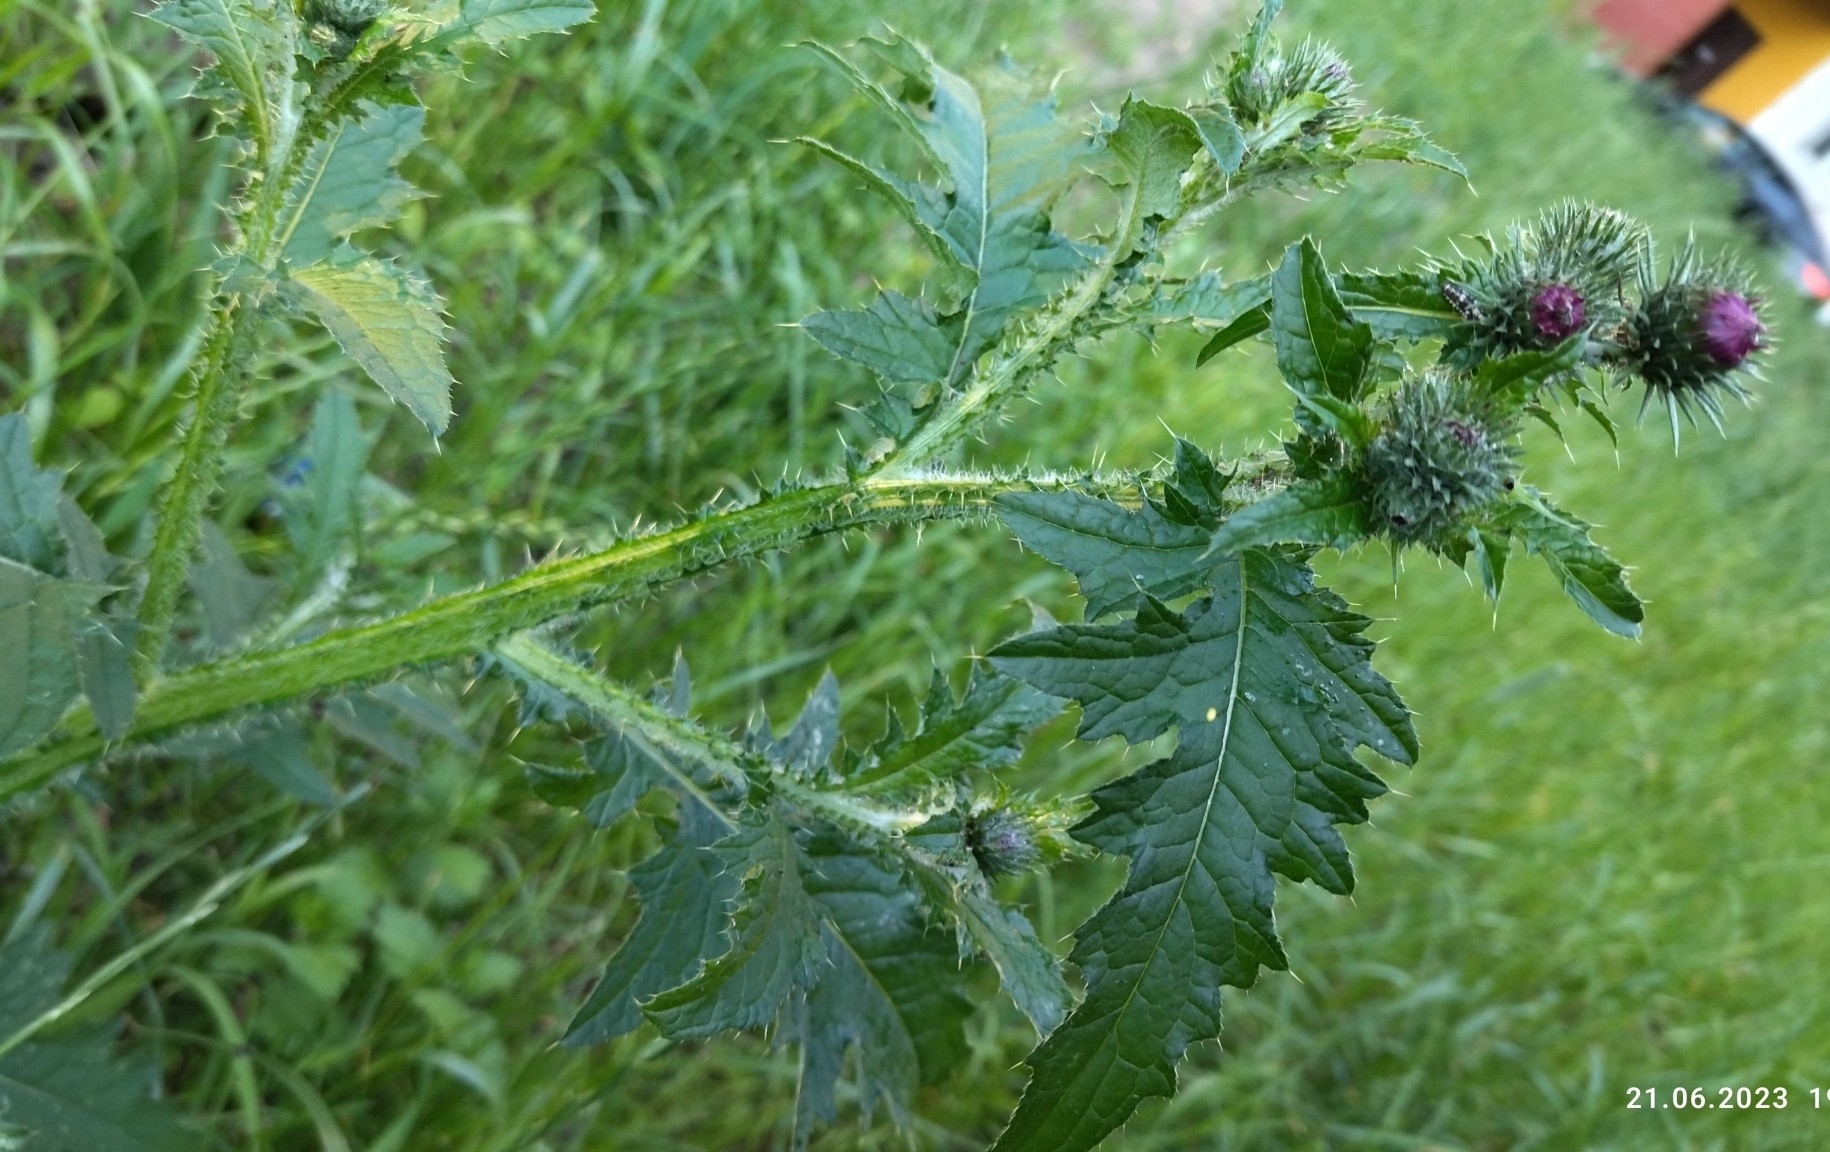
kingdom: Plantae
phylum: Tracheophyta
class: Magnoliopsida
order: Asterales
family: Asteraceae
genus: Carduus
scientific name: Carduus crispus
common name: Welted thistle
